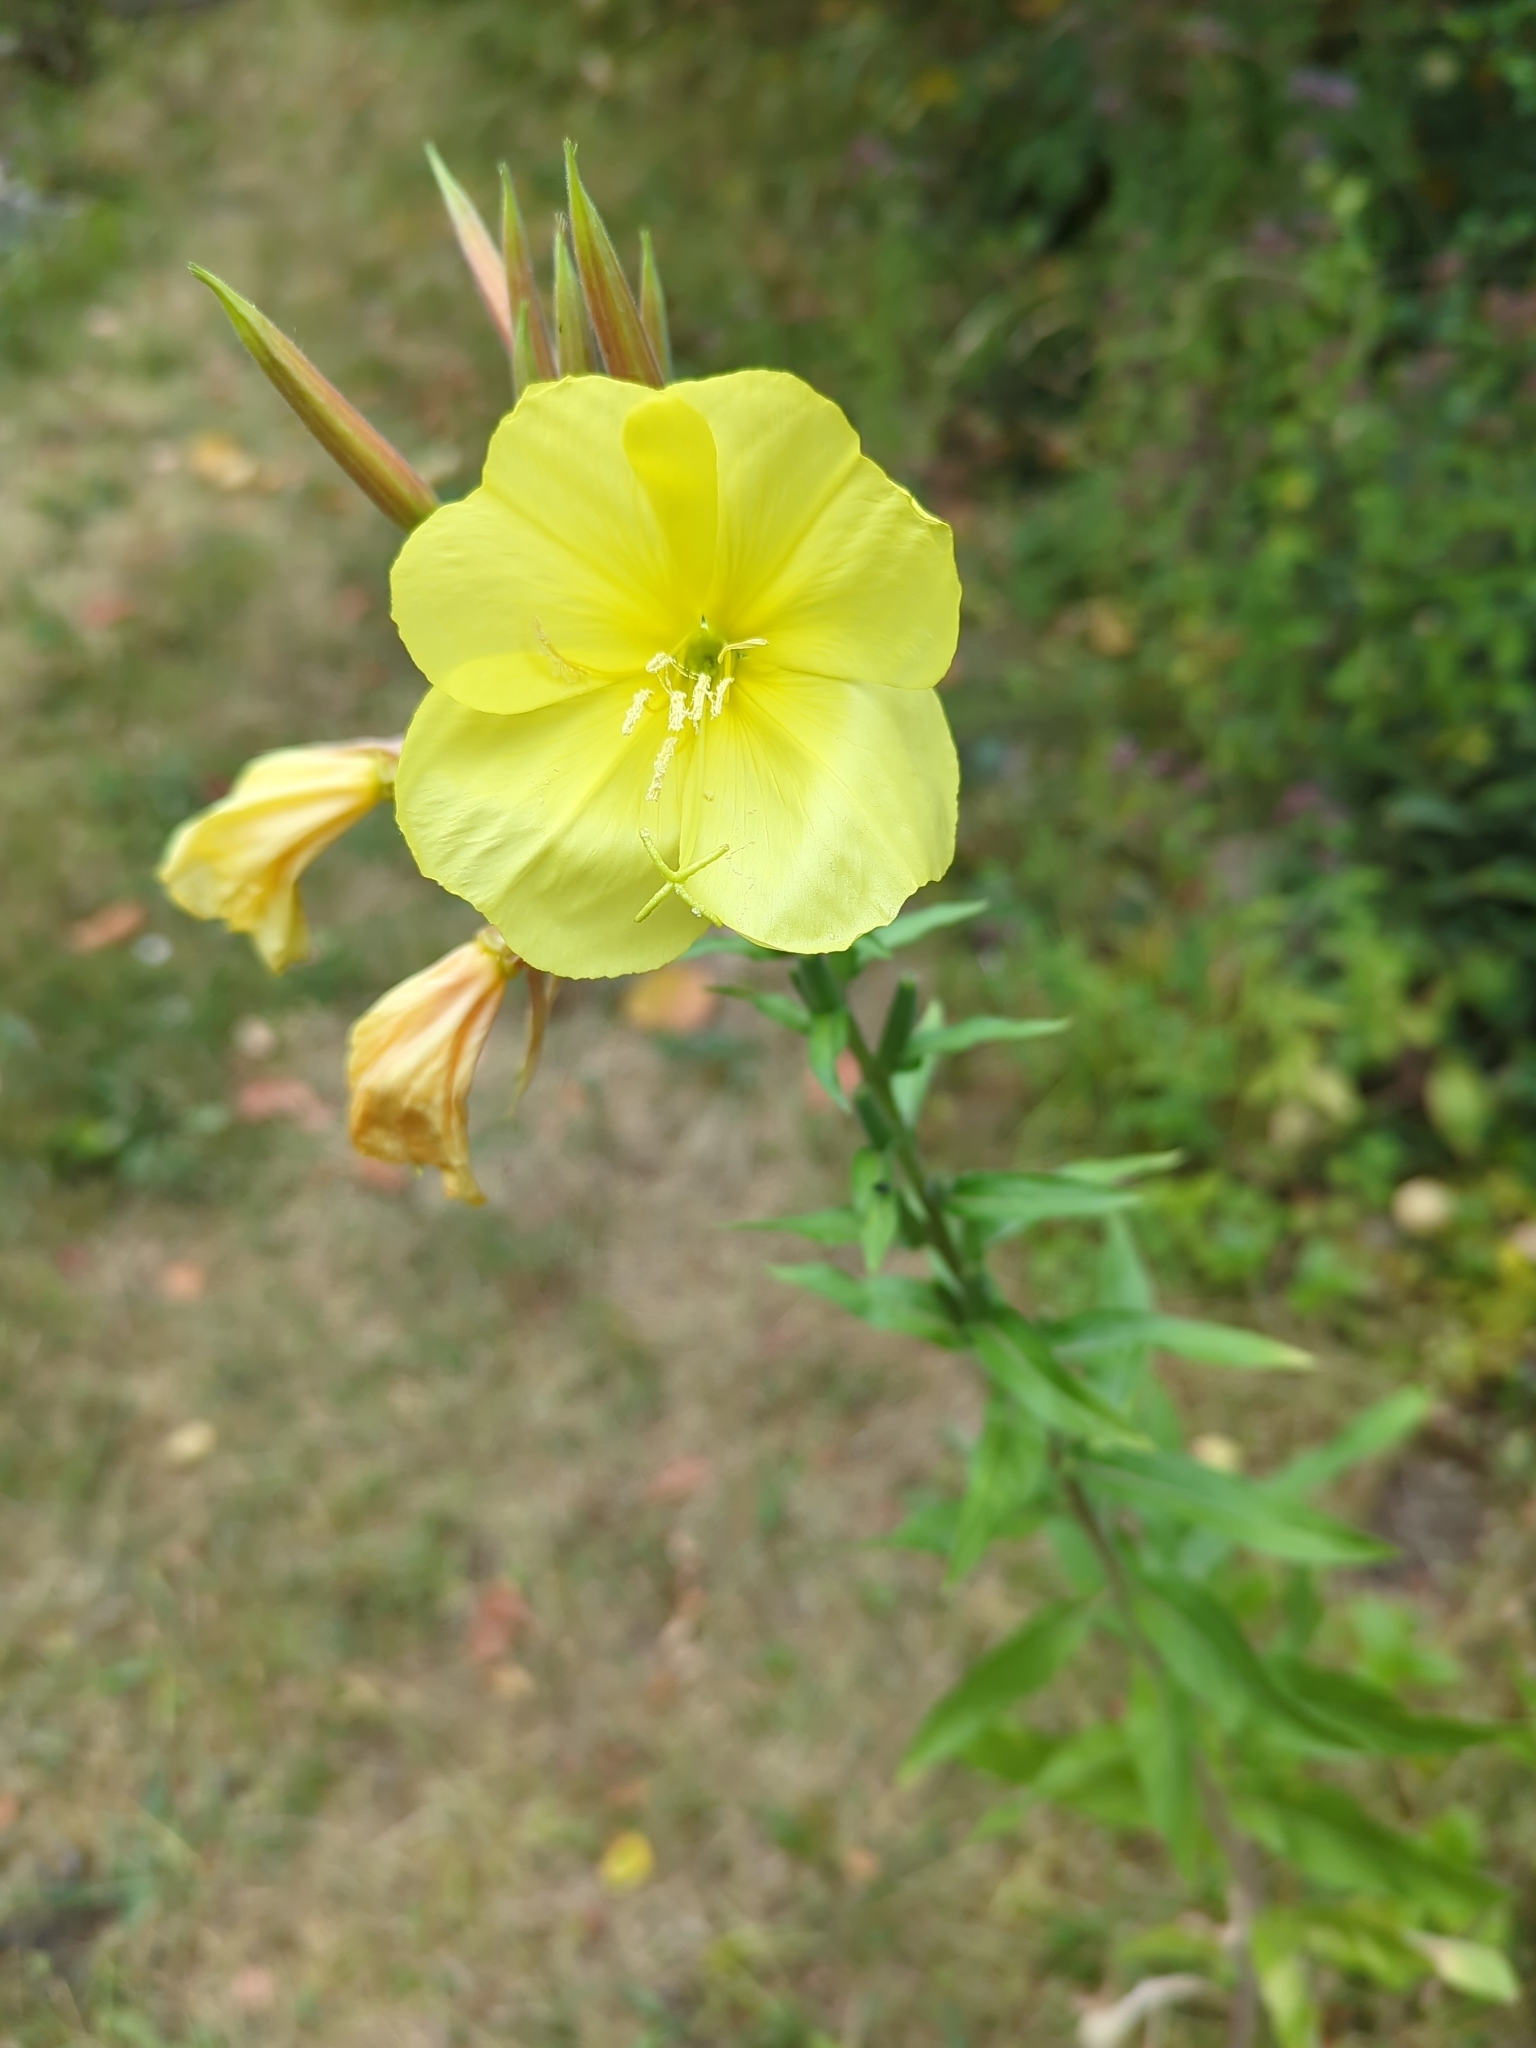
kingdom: Plantae
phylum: Tracheophyta
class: Magnoliopsida
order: Myrtales
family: Onagraceae
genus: Oenothera
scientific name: Oenothera glazioviana
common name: Large-flowered evening-primrose
